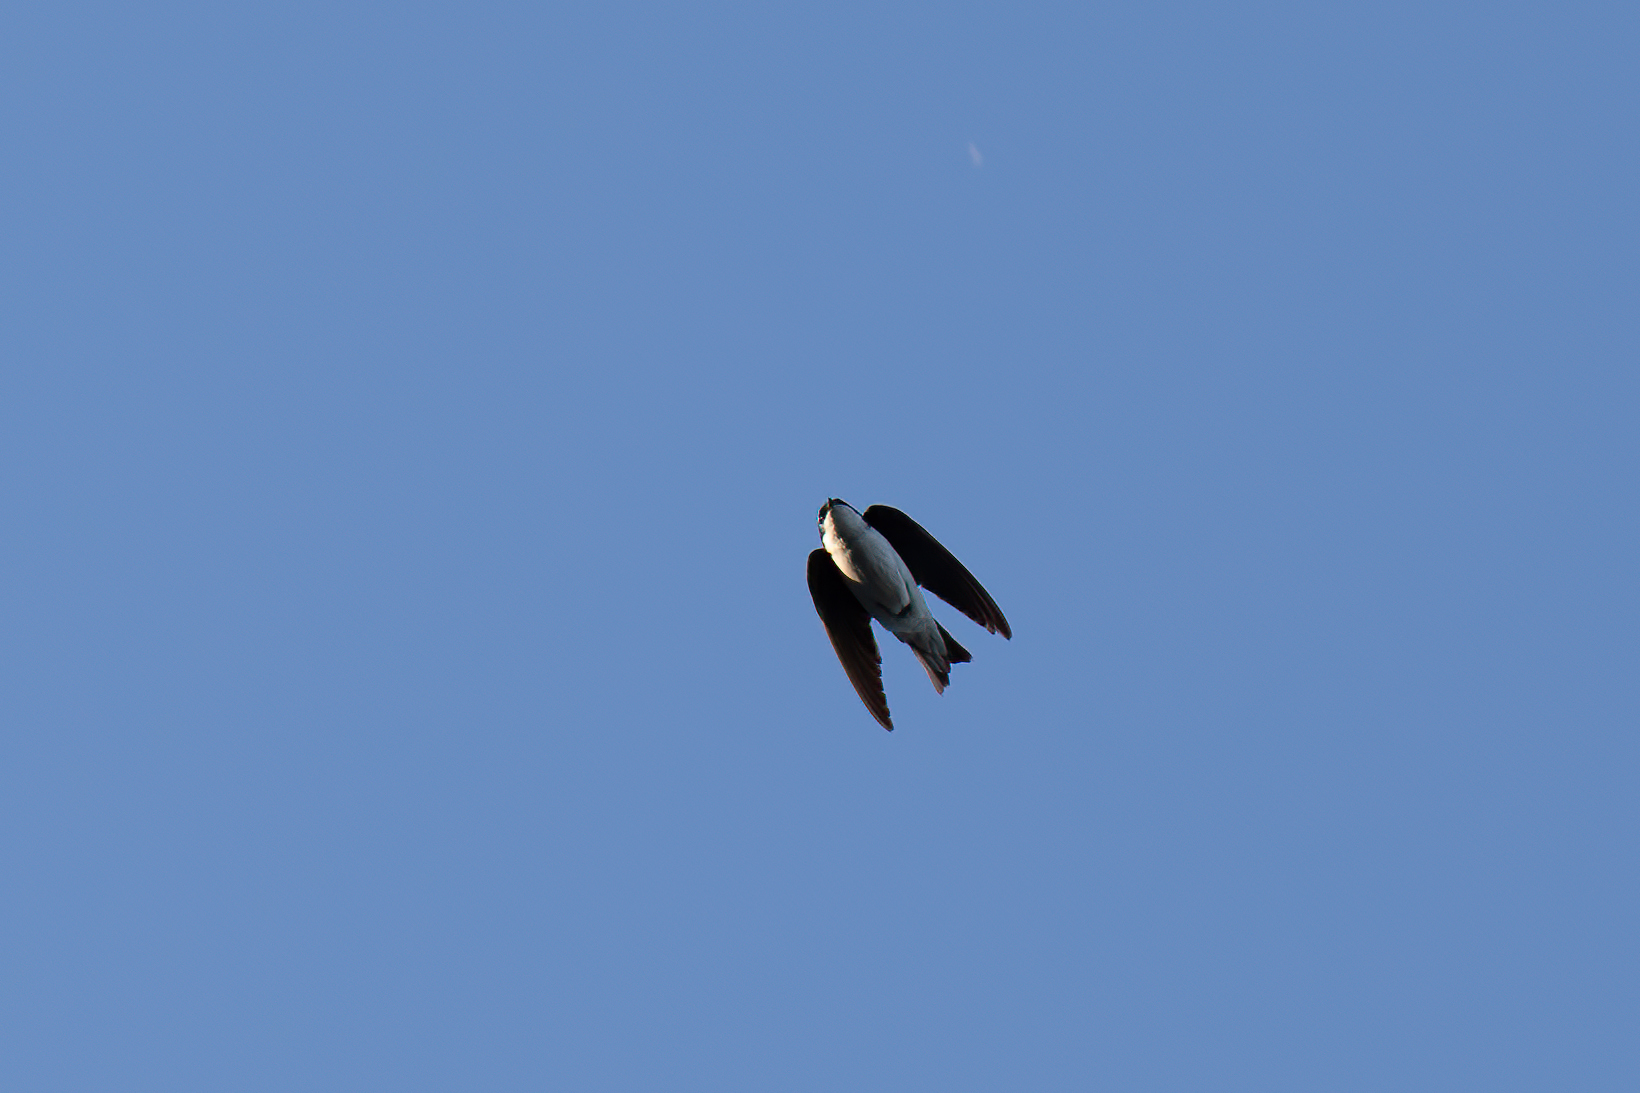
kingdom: Animalia
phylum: Chordata
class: Aves
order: Passeriformes
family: Hirundinidae
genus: Tachycineta
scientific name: Tachycineta bicolor
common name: Tree swallow
